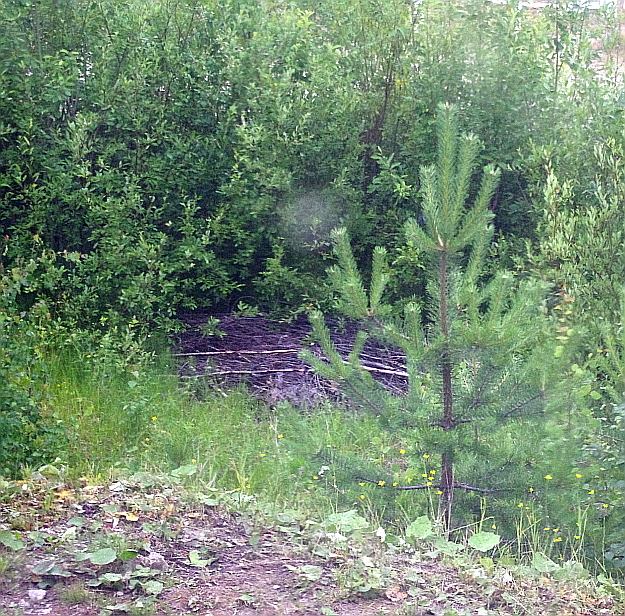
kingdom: Plantae
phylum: Tracheophyta
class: Pinopsida
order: Pinales
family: Pinaceae
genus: Pinus
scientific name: Pinus sylvestris
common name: Scots pine
